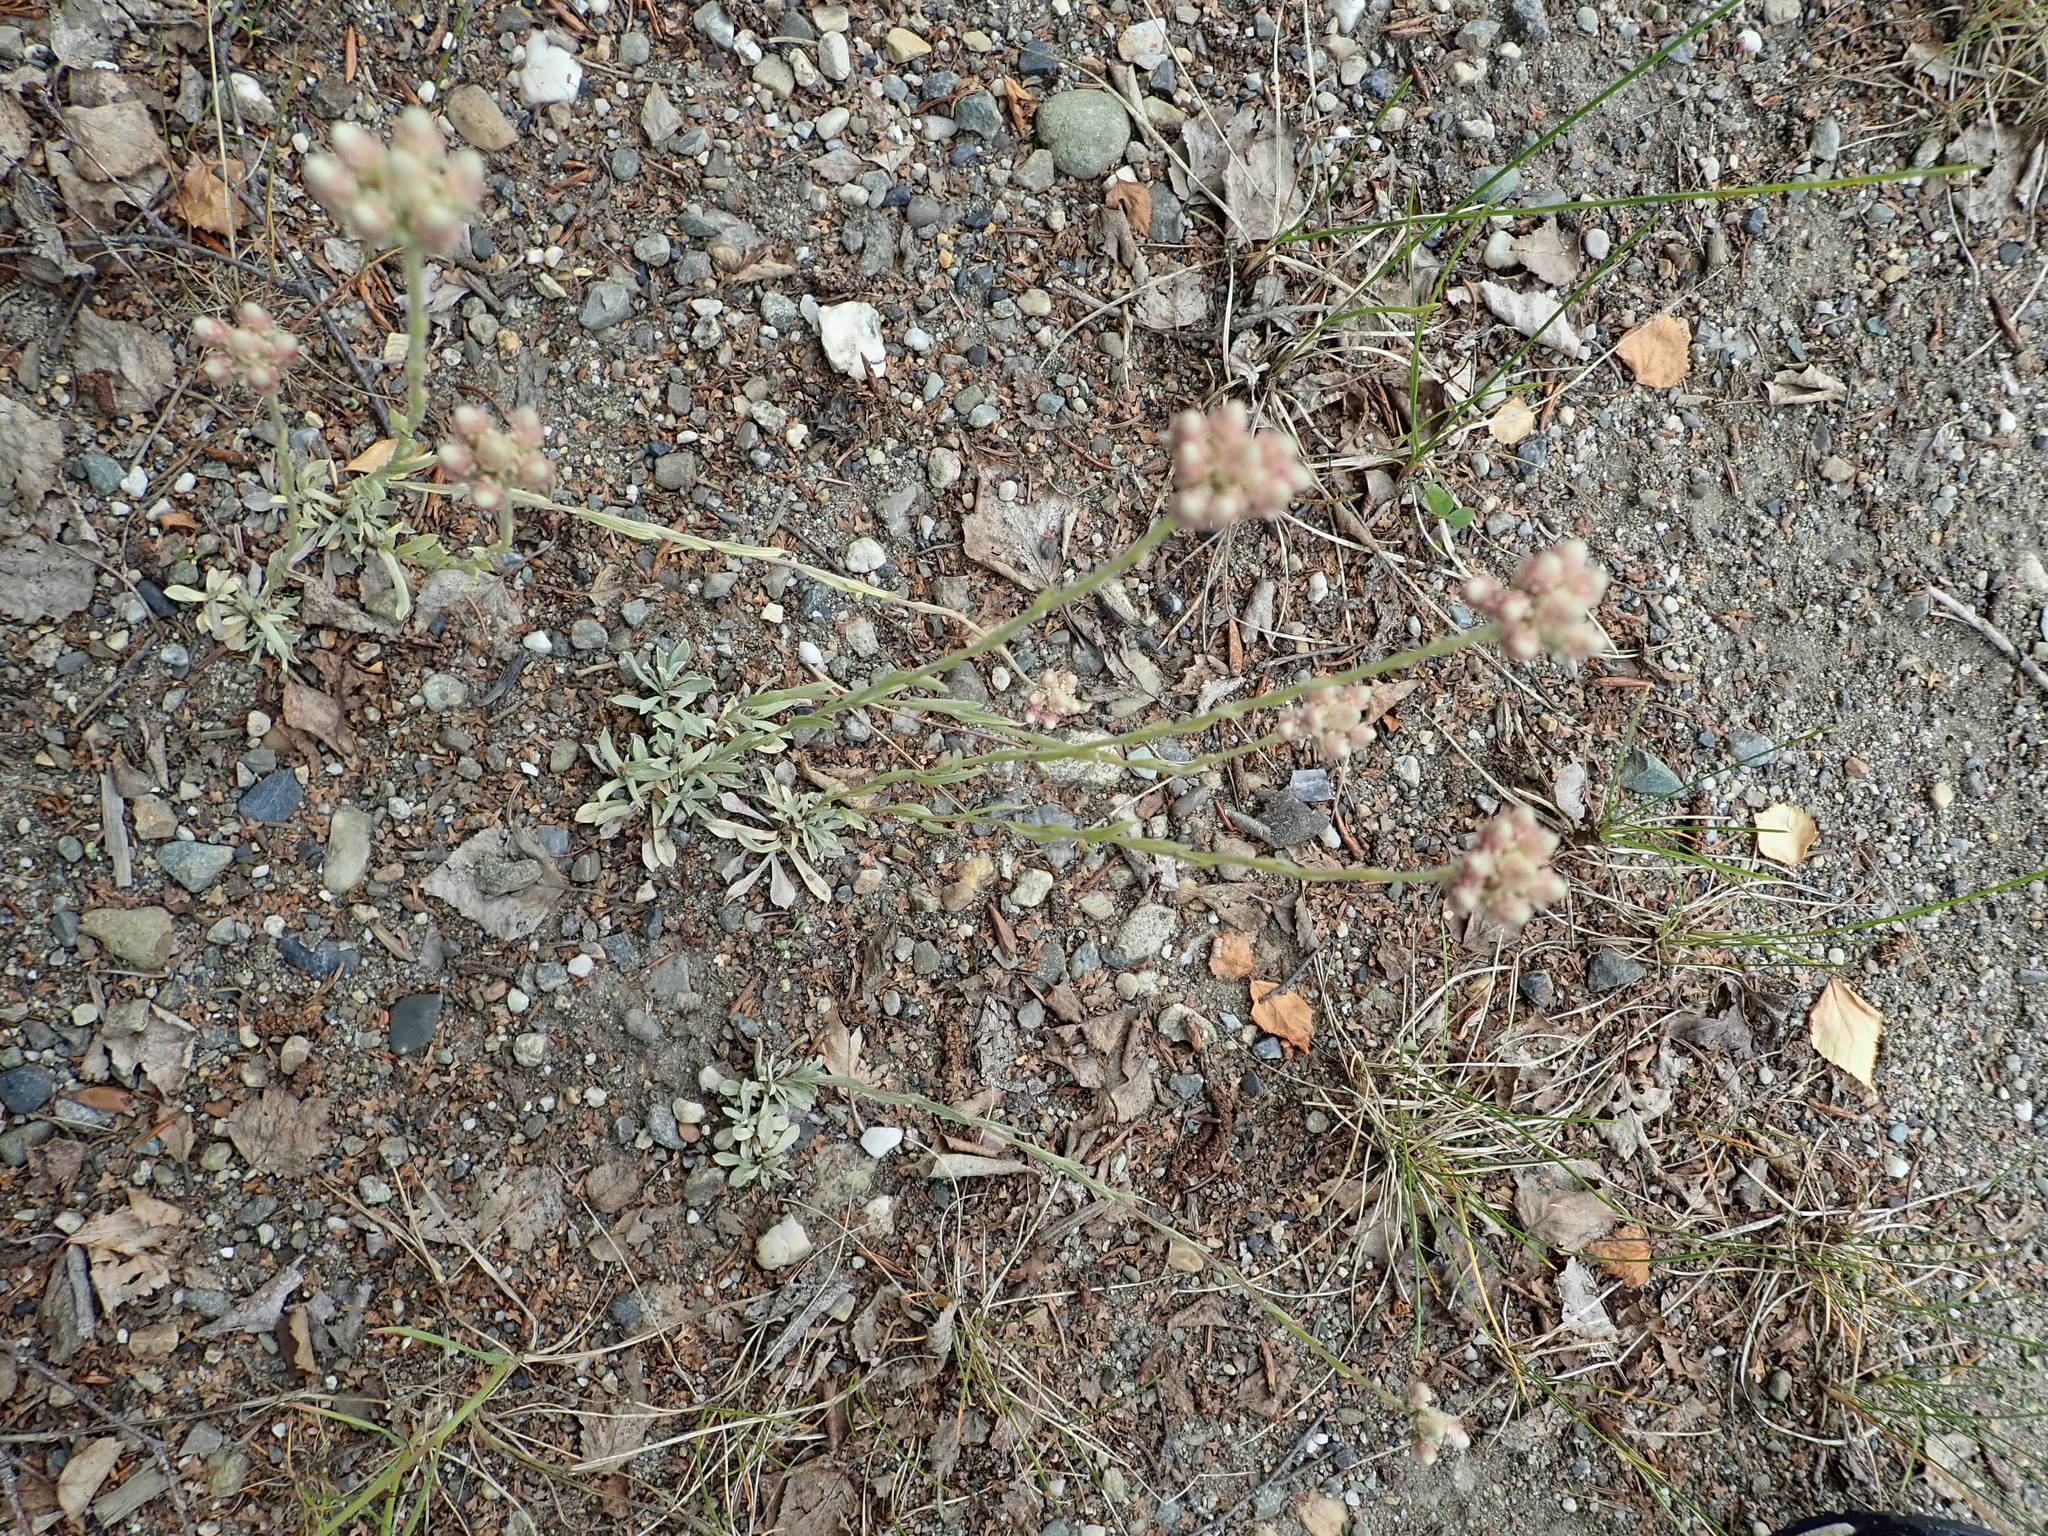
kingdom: Plantae
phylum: Tracheophyta
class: Magnoliopsida
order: Asterales
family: Asteraceae
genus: Antennaria
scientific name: Antennaria rosea
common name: Rosy pussytoes
